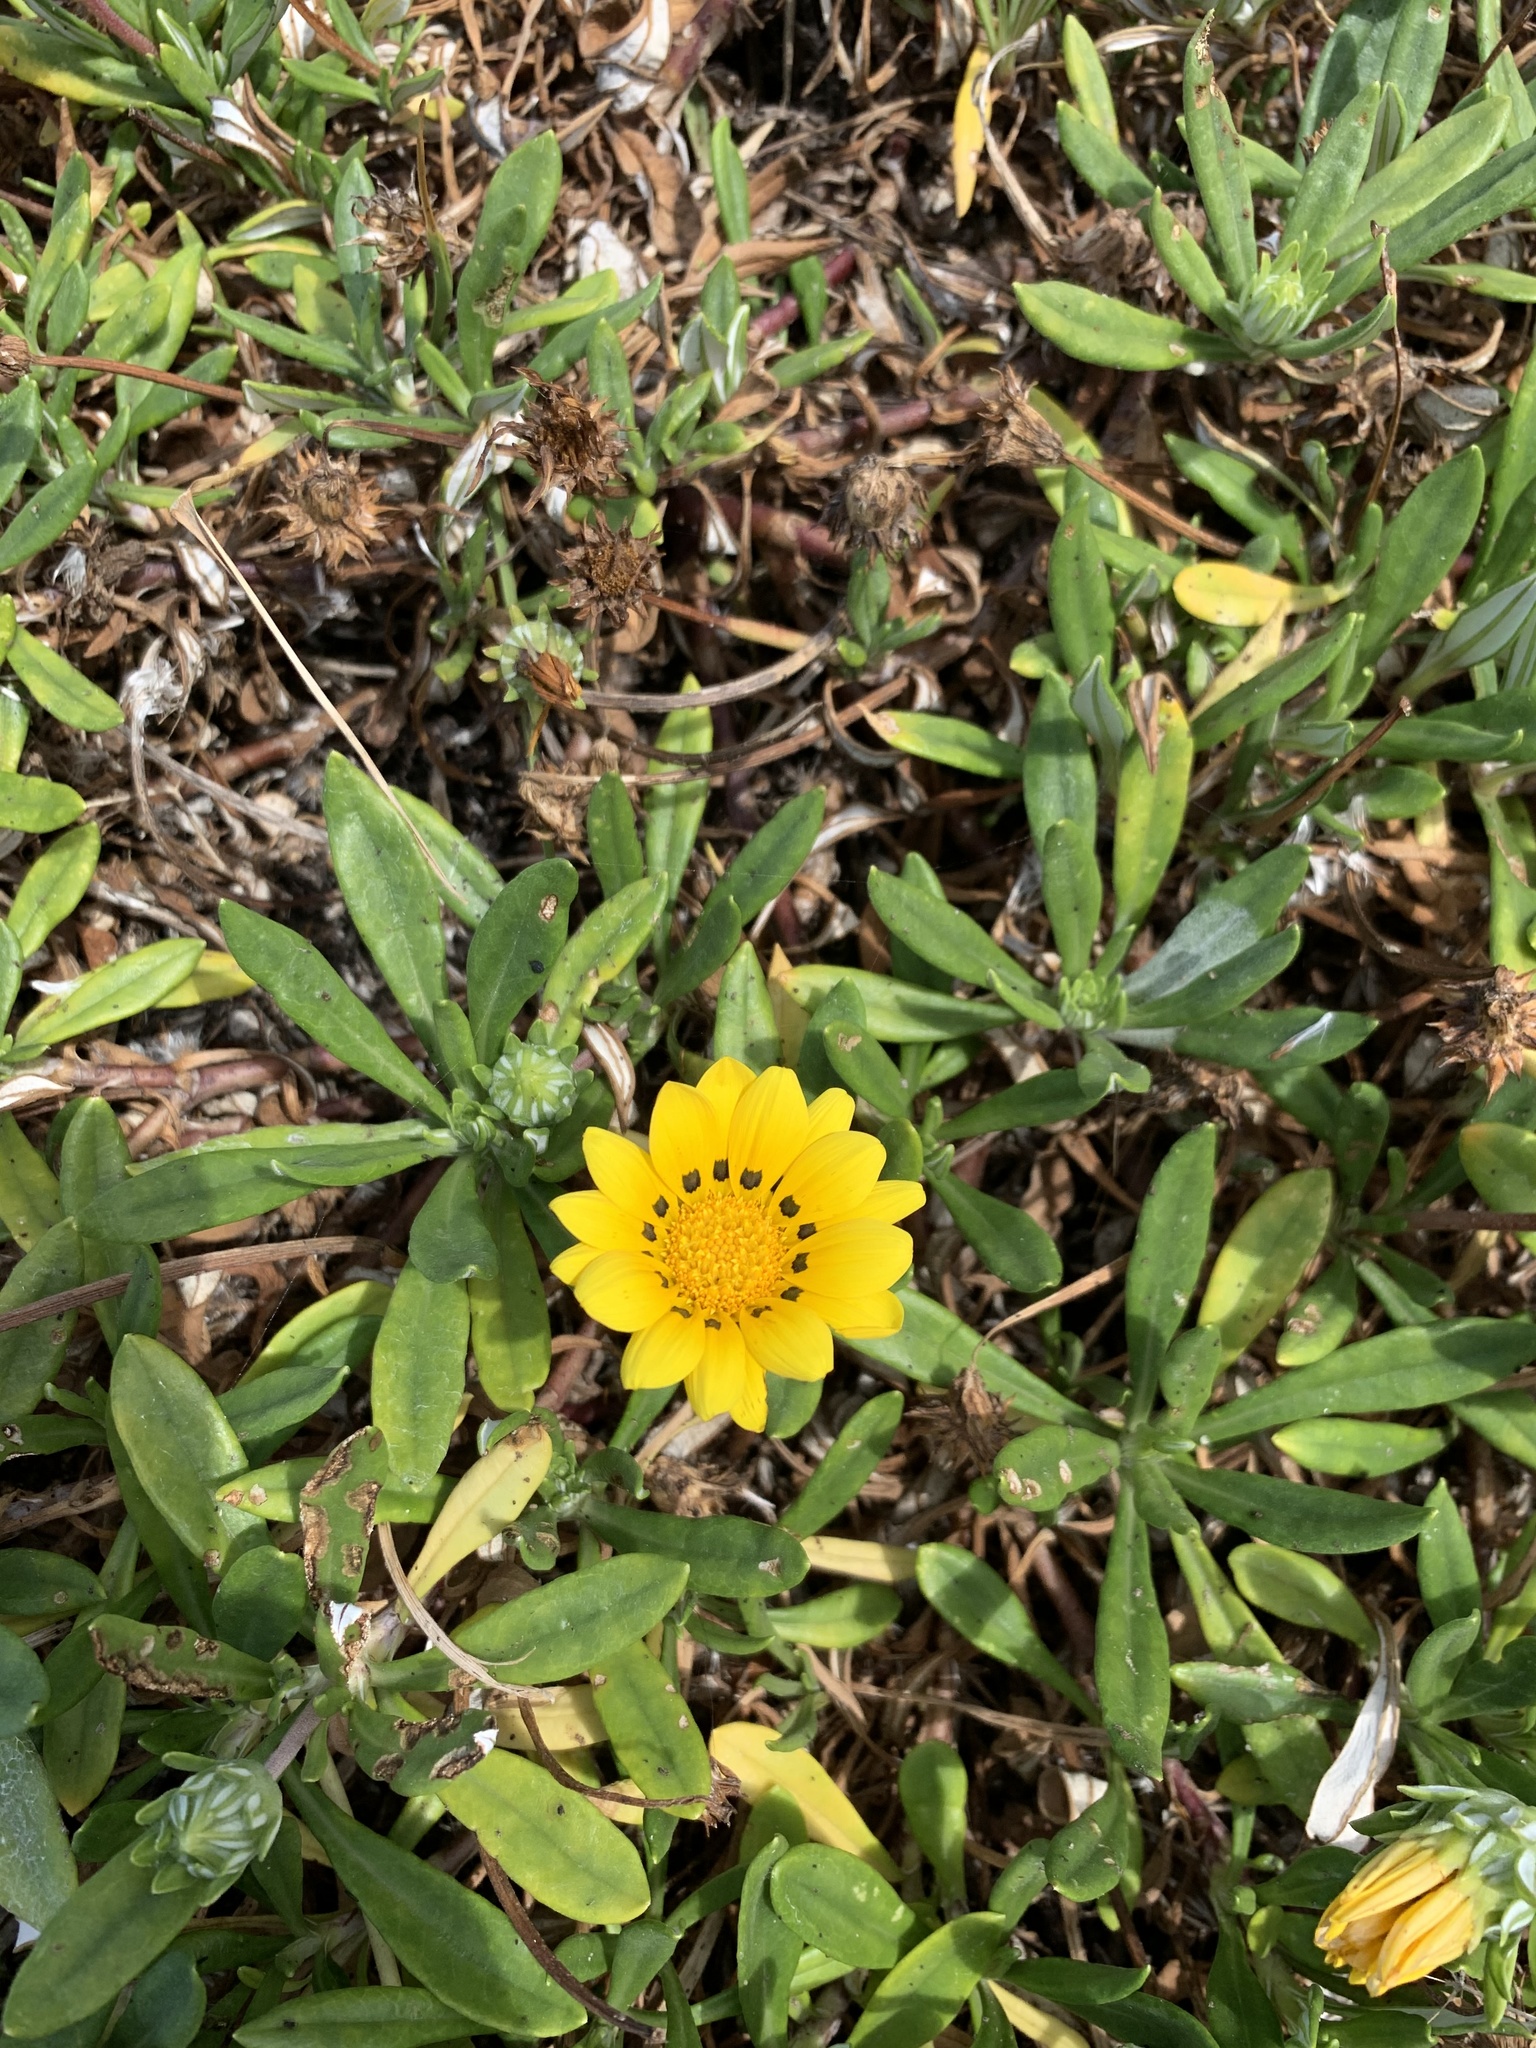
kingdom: Plantae
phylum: Tracheophyta
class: Magnoliopsida
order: Asterales
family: Asteraceae
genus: Gazania
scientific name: Gazania rigens
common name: Treasureflower
